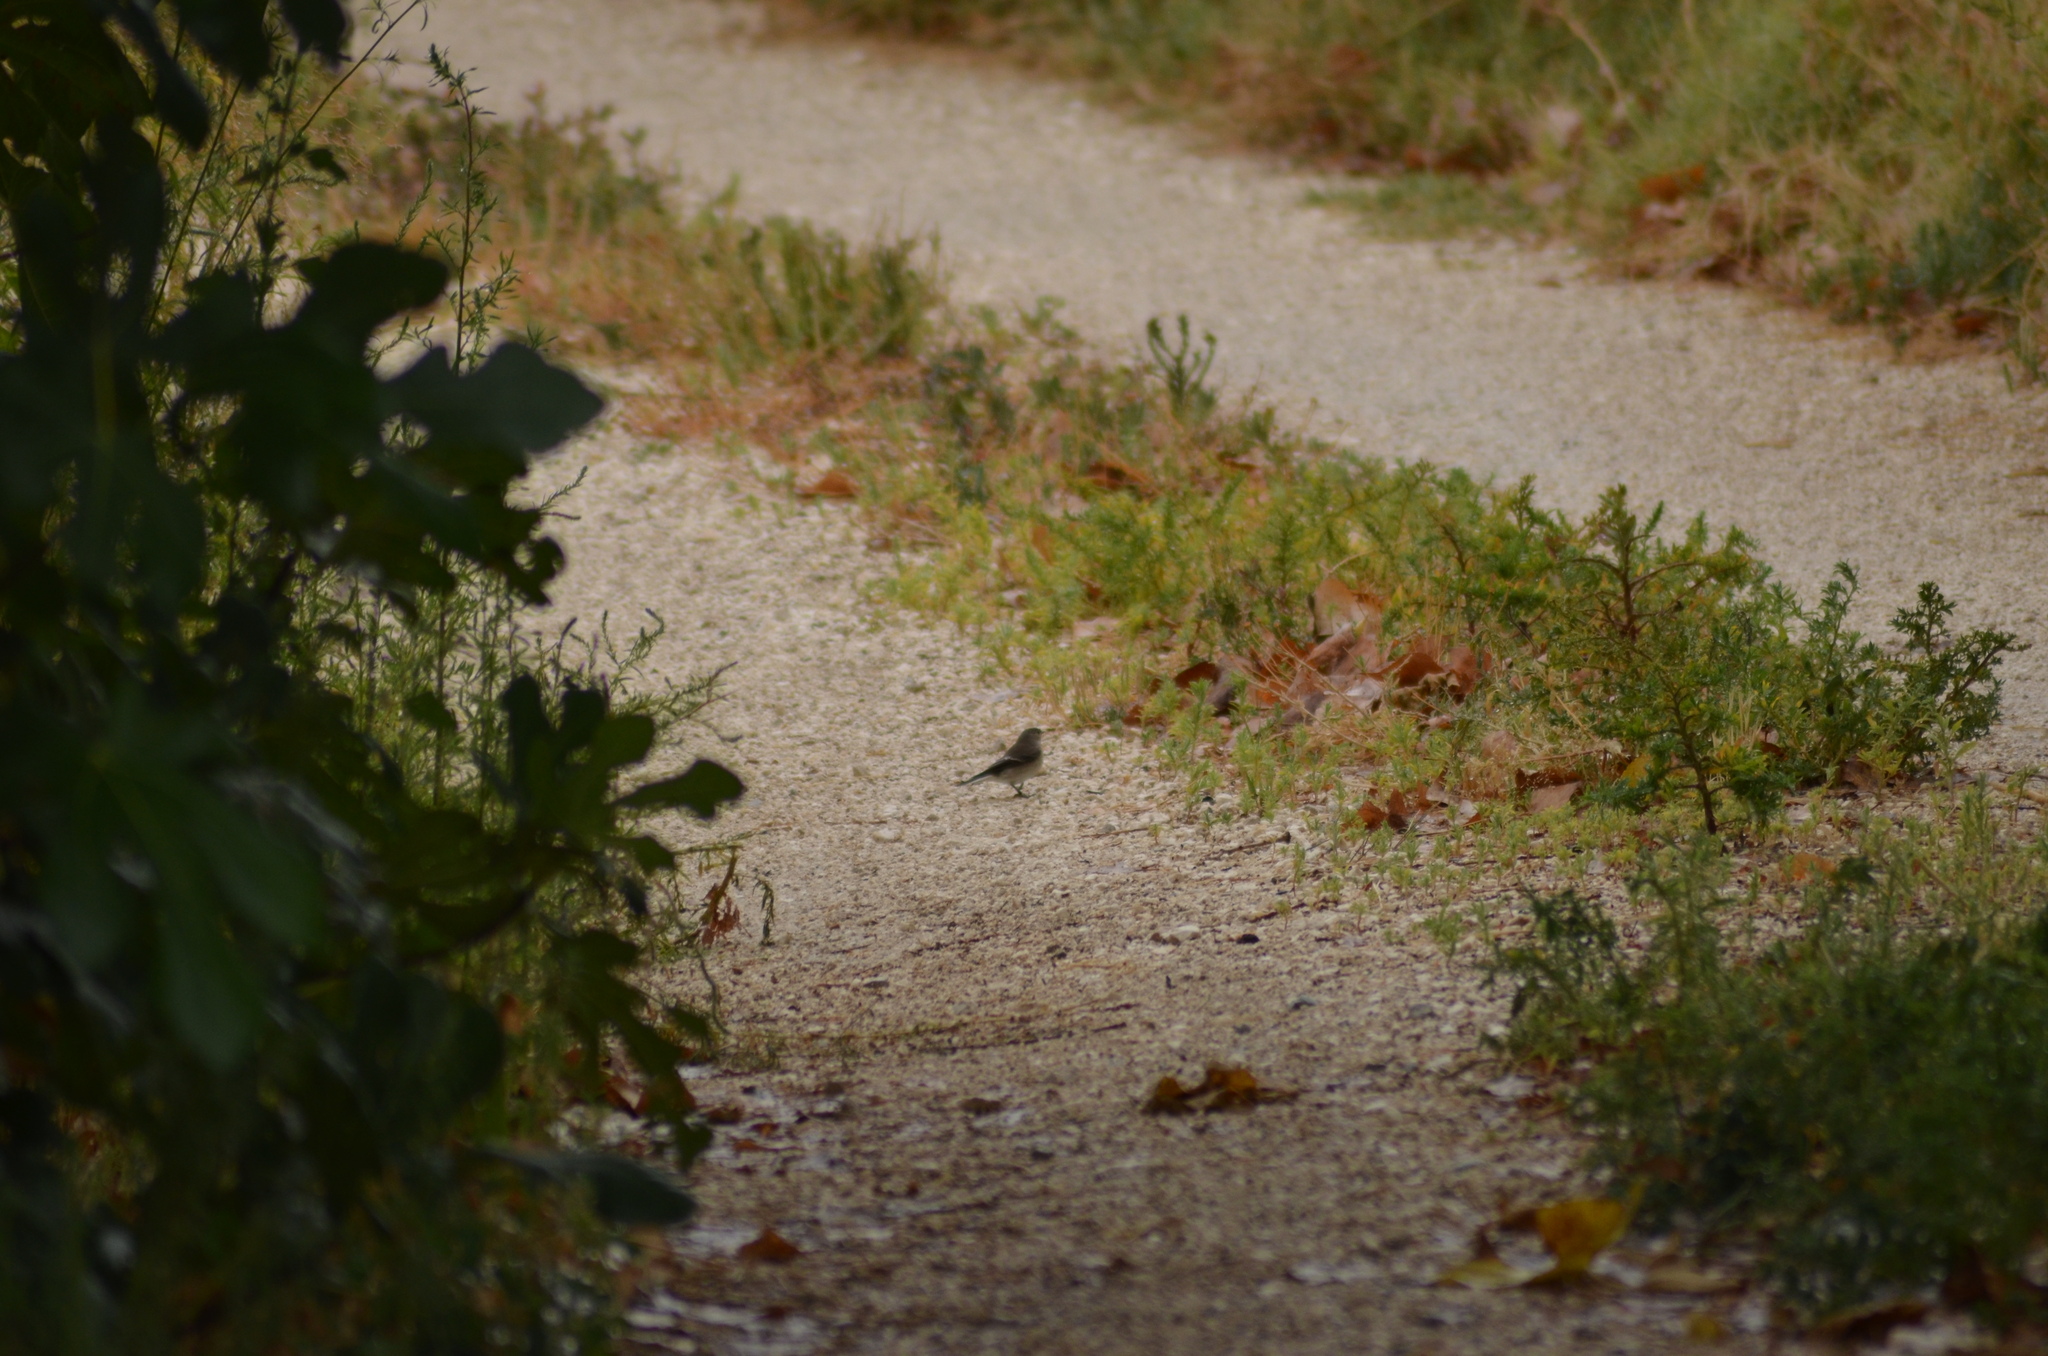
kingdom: Animalia
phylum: Chordata
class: Aves
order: Passeriformes
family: Muscicapidae
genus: Ficedula
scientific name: Ficedula hypoleuca
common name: European pied flycatcher
